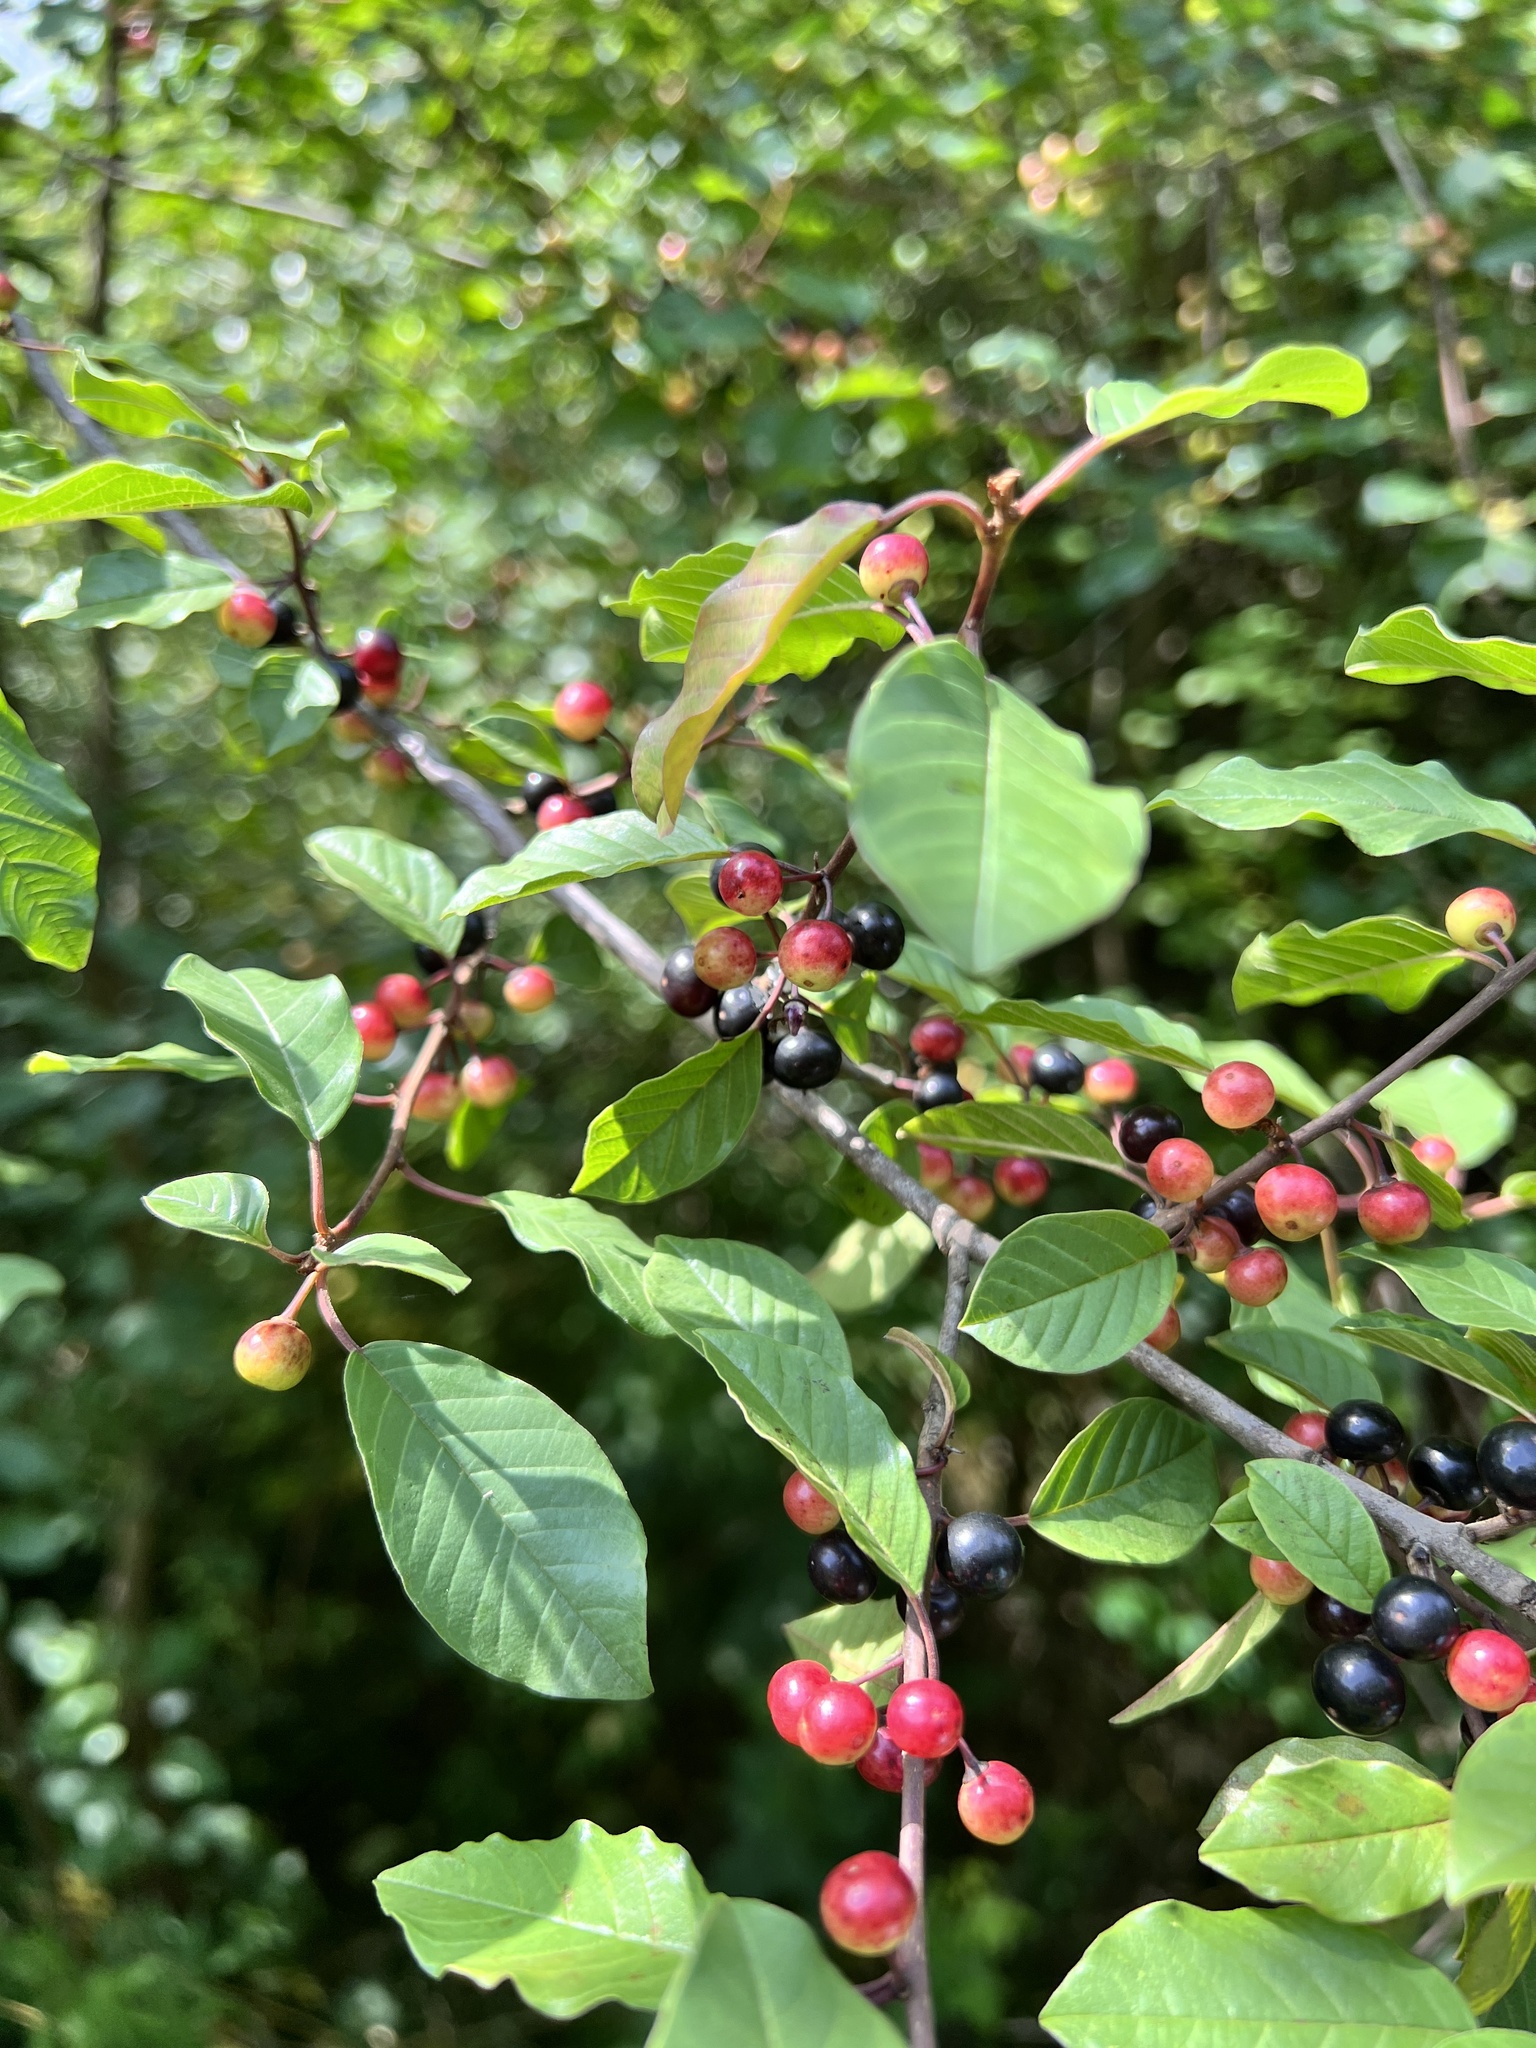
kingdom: Plantae
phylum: Tracheophyta
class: Magnoliopsida
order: Rosales
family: Rhamnaceae
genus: Frangula
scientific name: Frangula alnus
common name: Alder buckthorn
